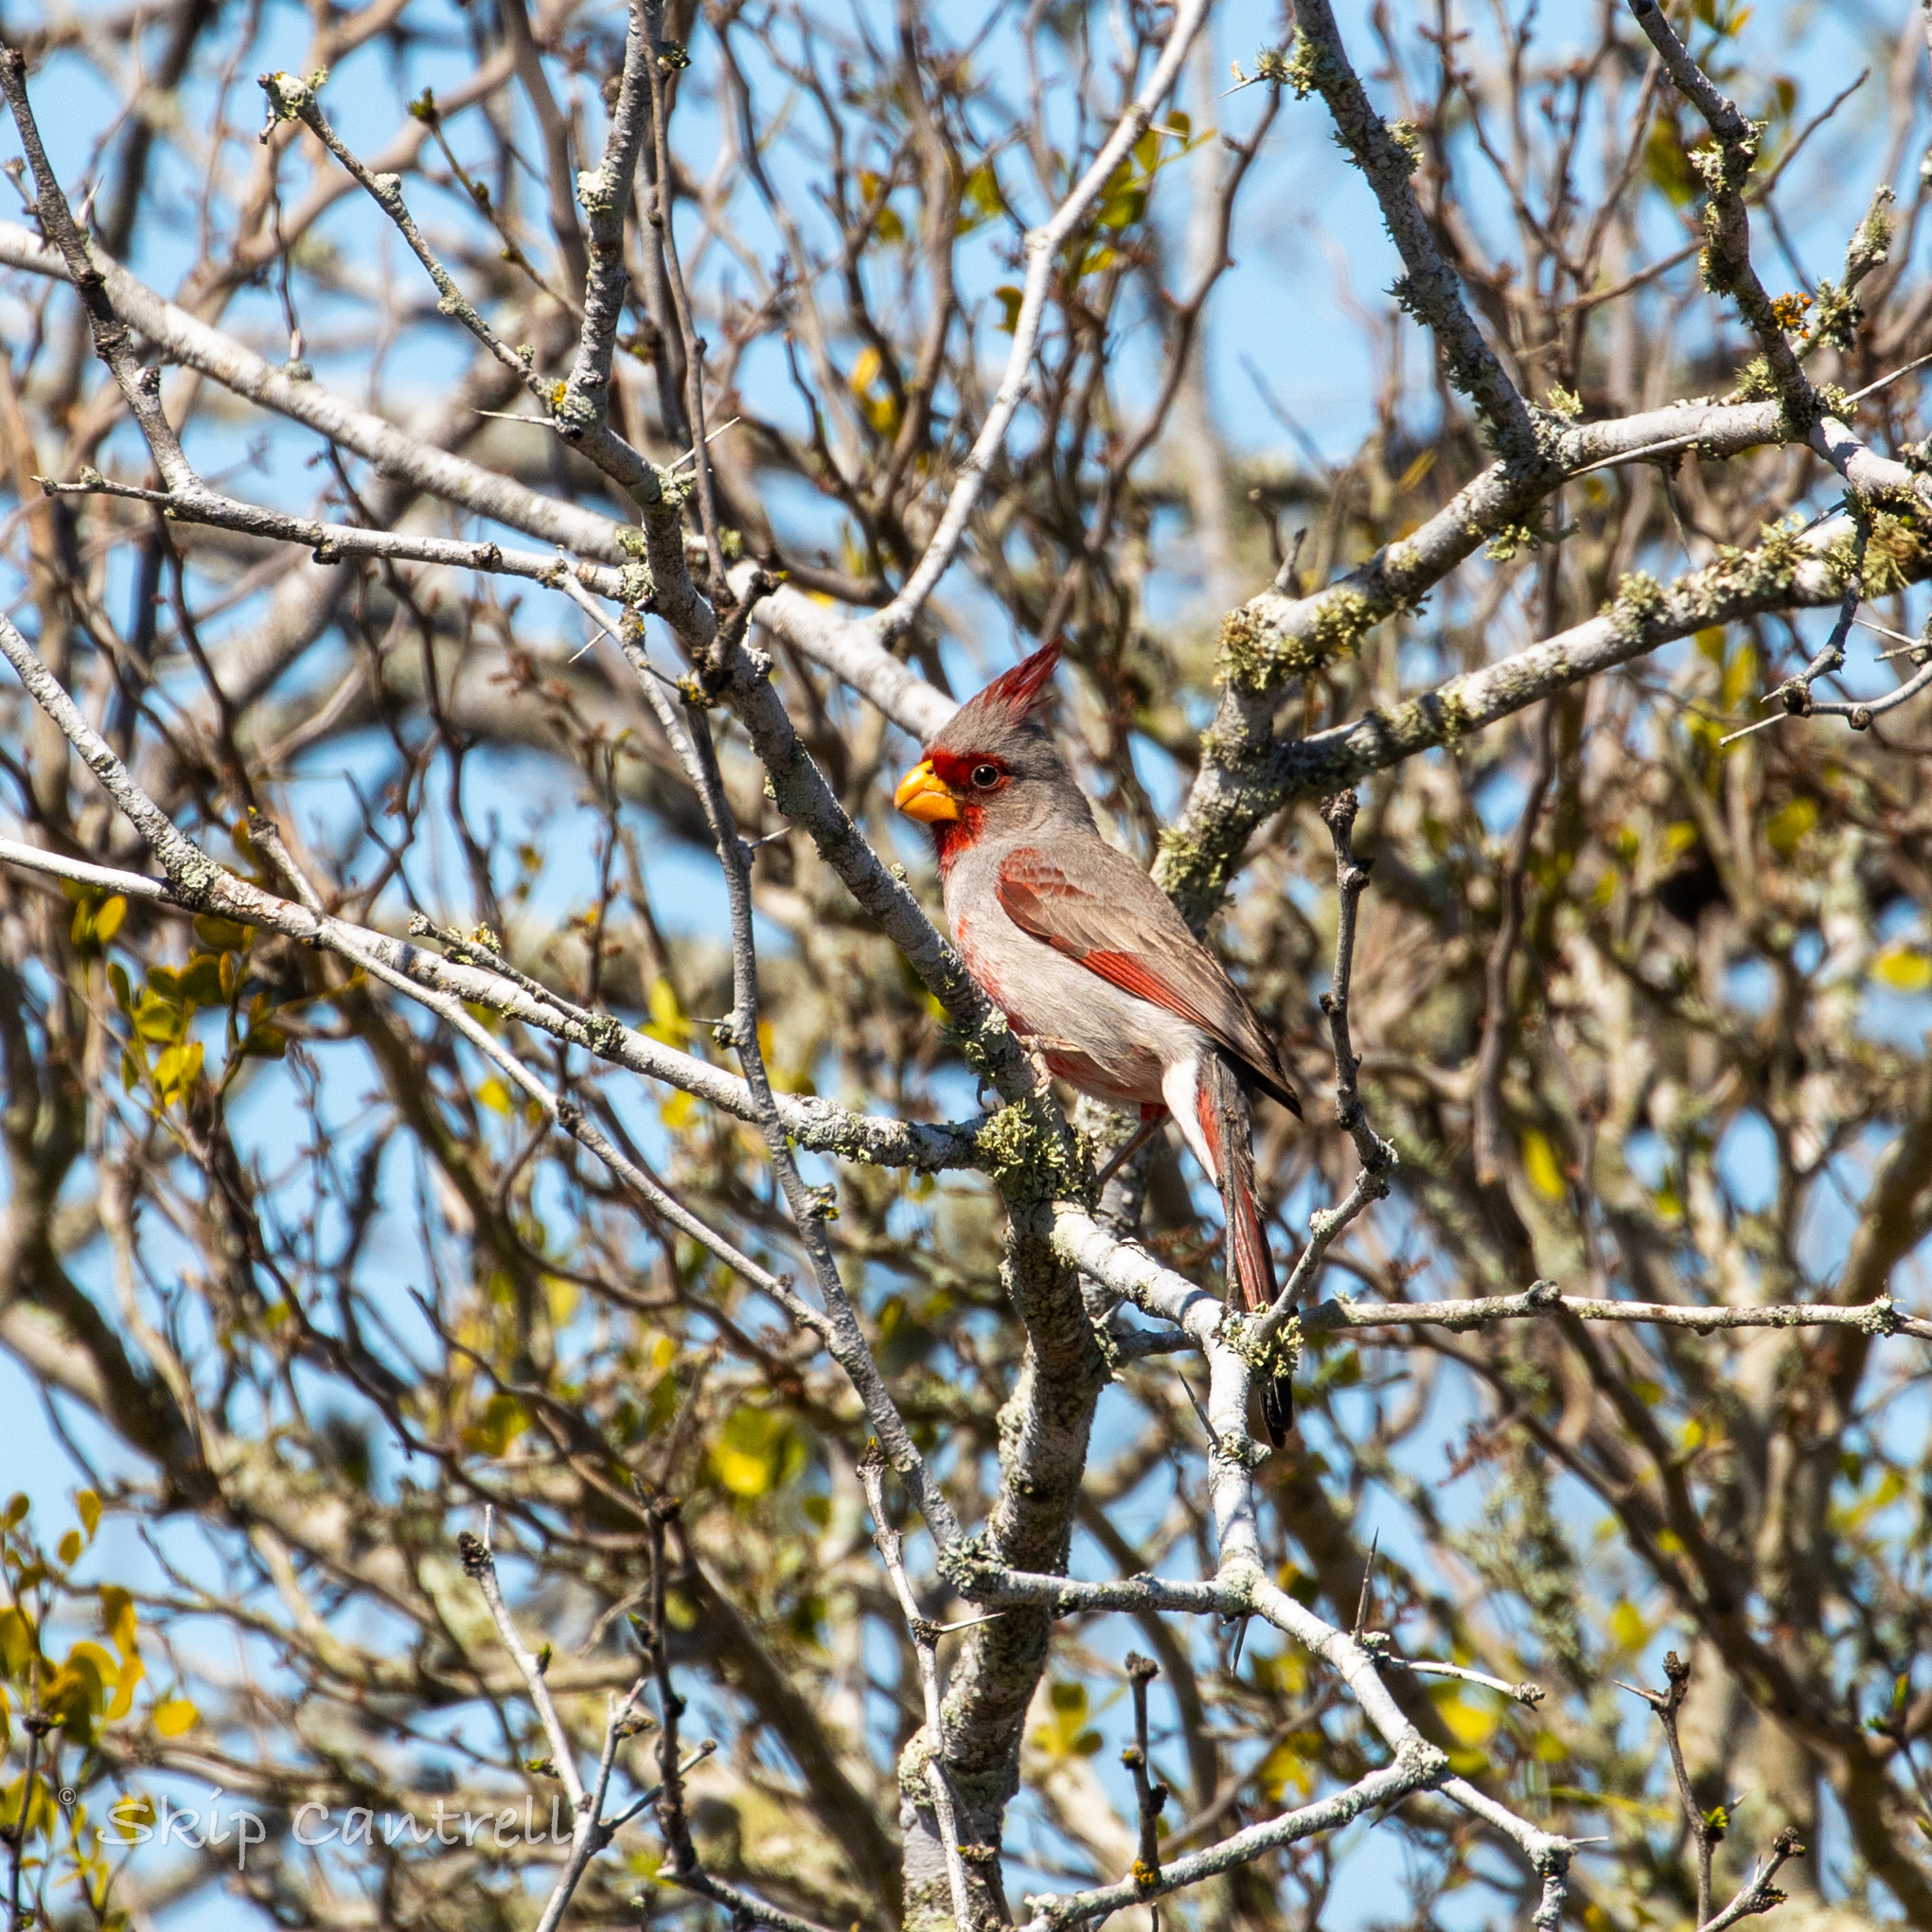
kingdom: Animalia
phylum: Chordata
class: Aves
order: Passeriformes
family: Cardinalidae
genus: Cardinalis
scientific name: Cardinalis sinuatus
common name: Pyrrhuloxia
